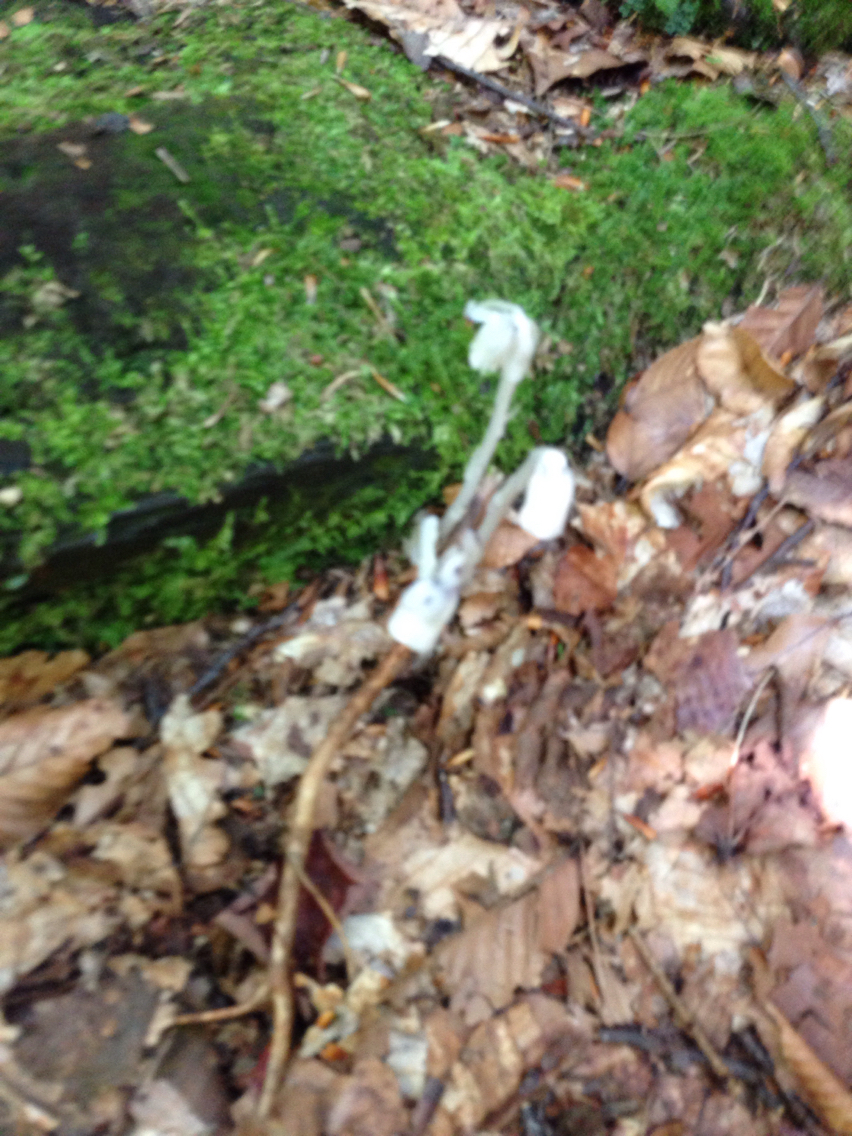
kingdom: Plantae
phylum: Tracheophyta
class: Magnoliopsida
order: Ericales
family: Ericaceae
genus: Monotropa
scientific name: Monotropa uniflora
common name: Convulsion root
